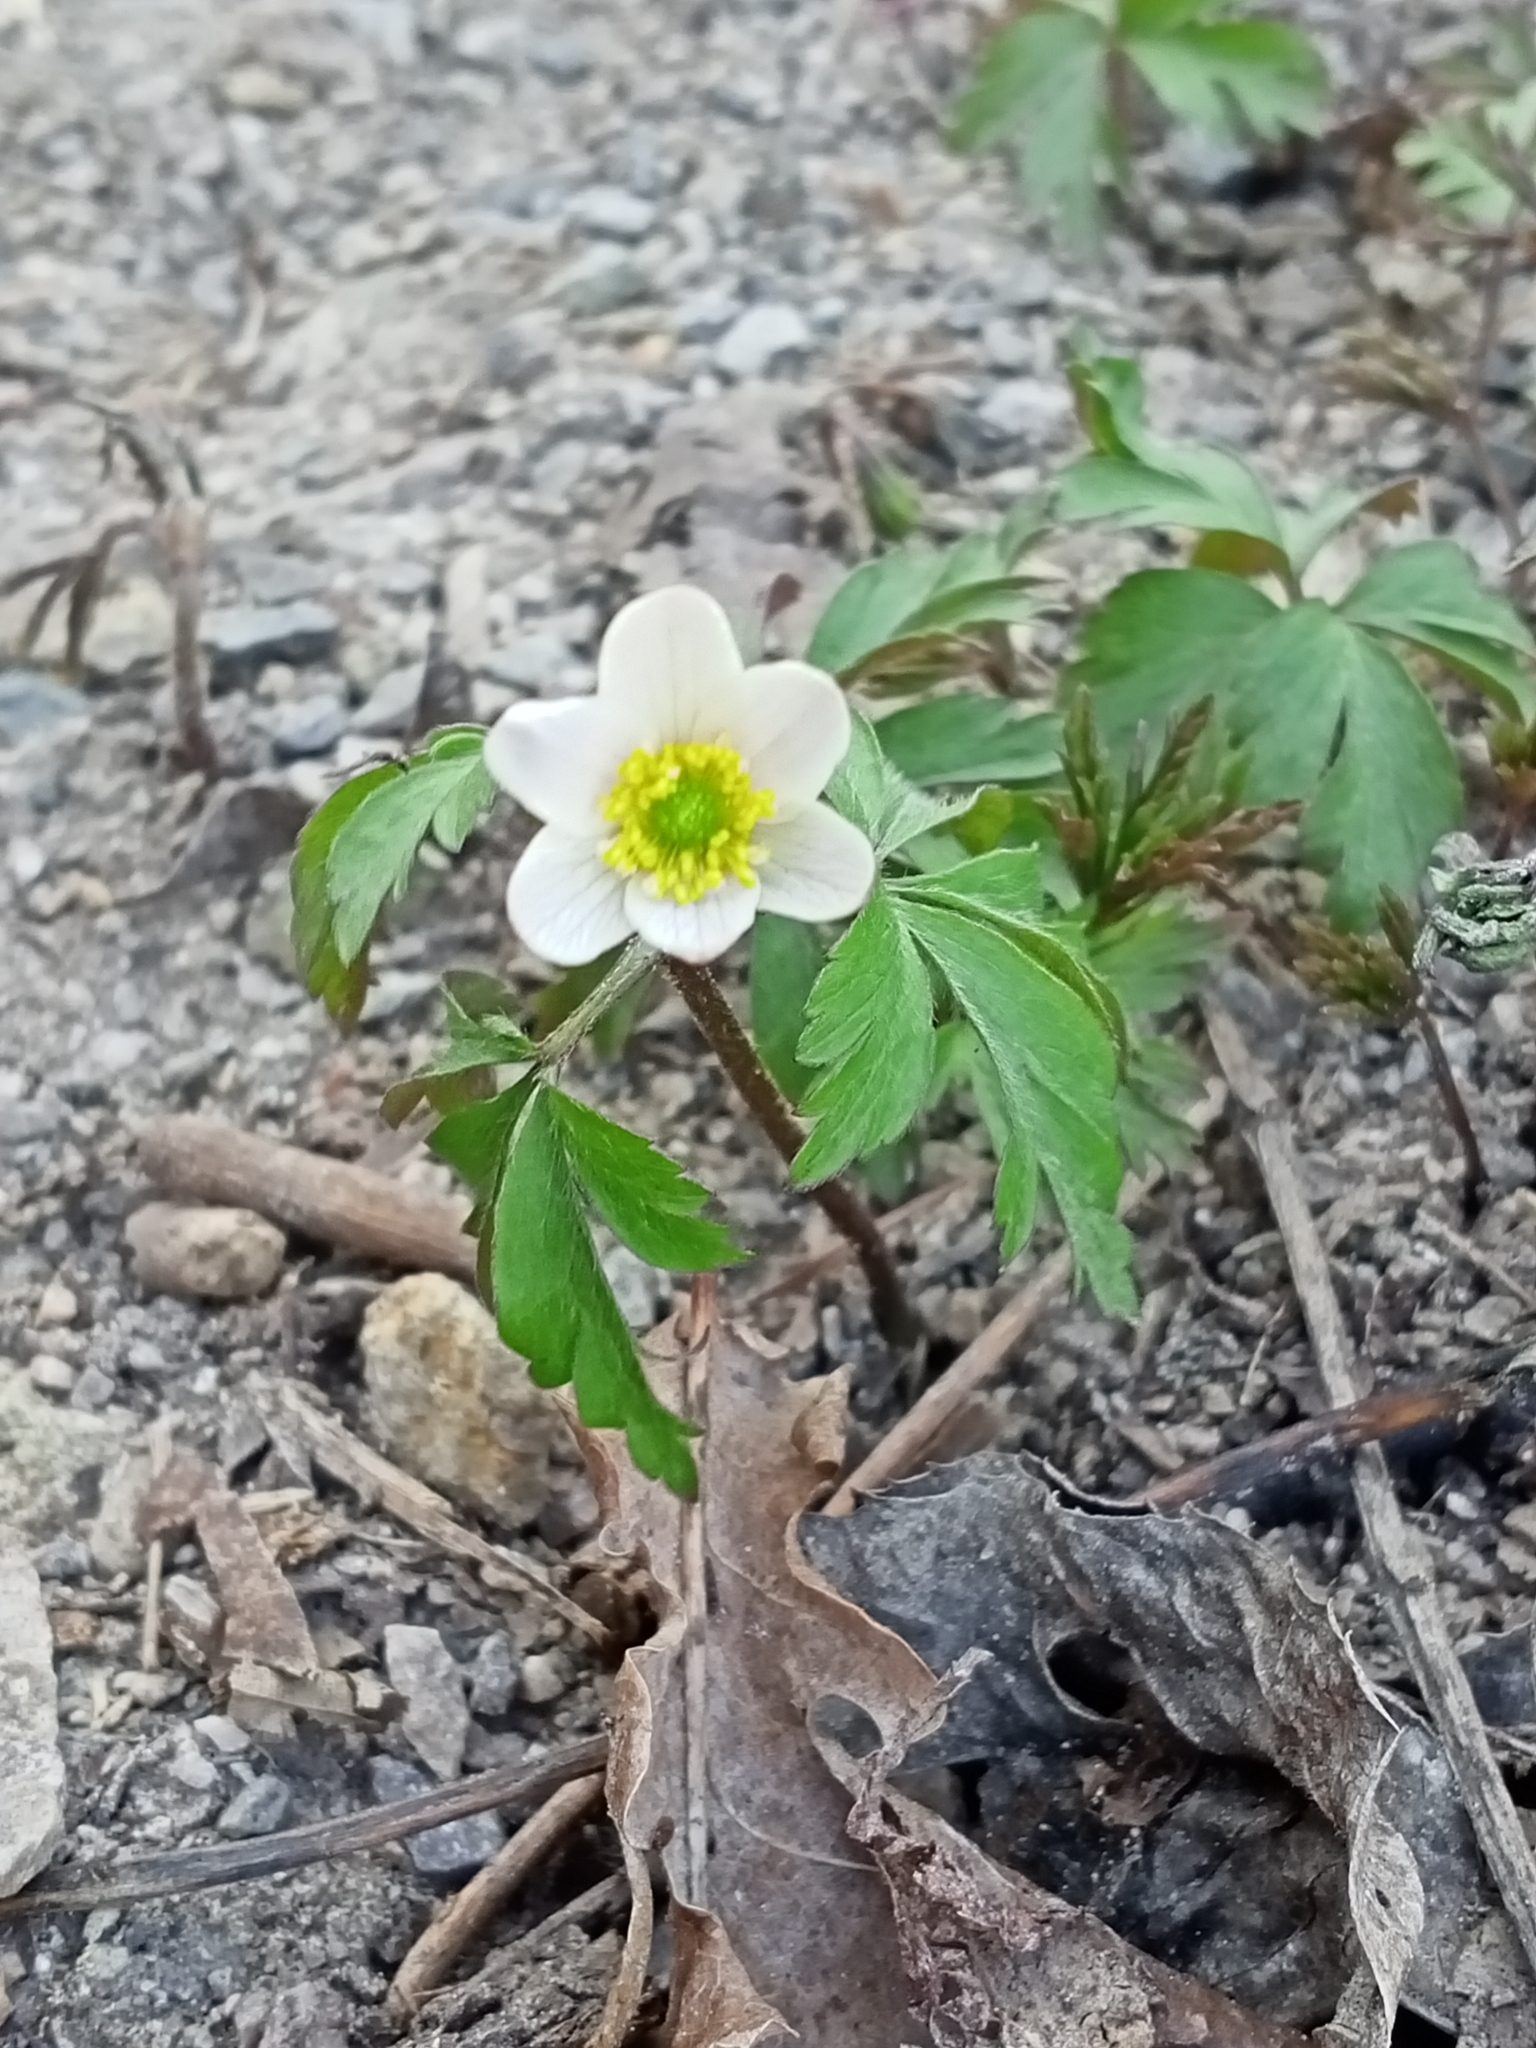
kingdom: Plantae
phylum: Tracheophyta
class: Magnoliopsida
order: Ranunculales
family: Ranunculaceae
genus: Anemone
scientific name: Anemone nemorosa
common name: Wood anemone
